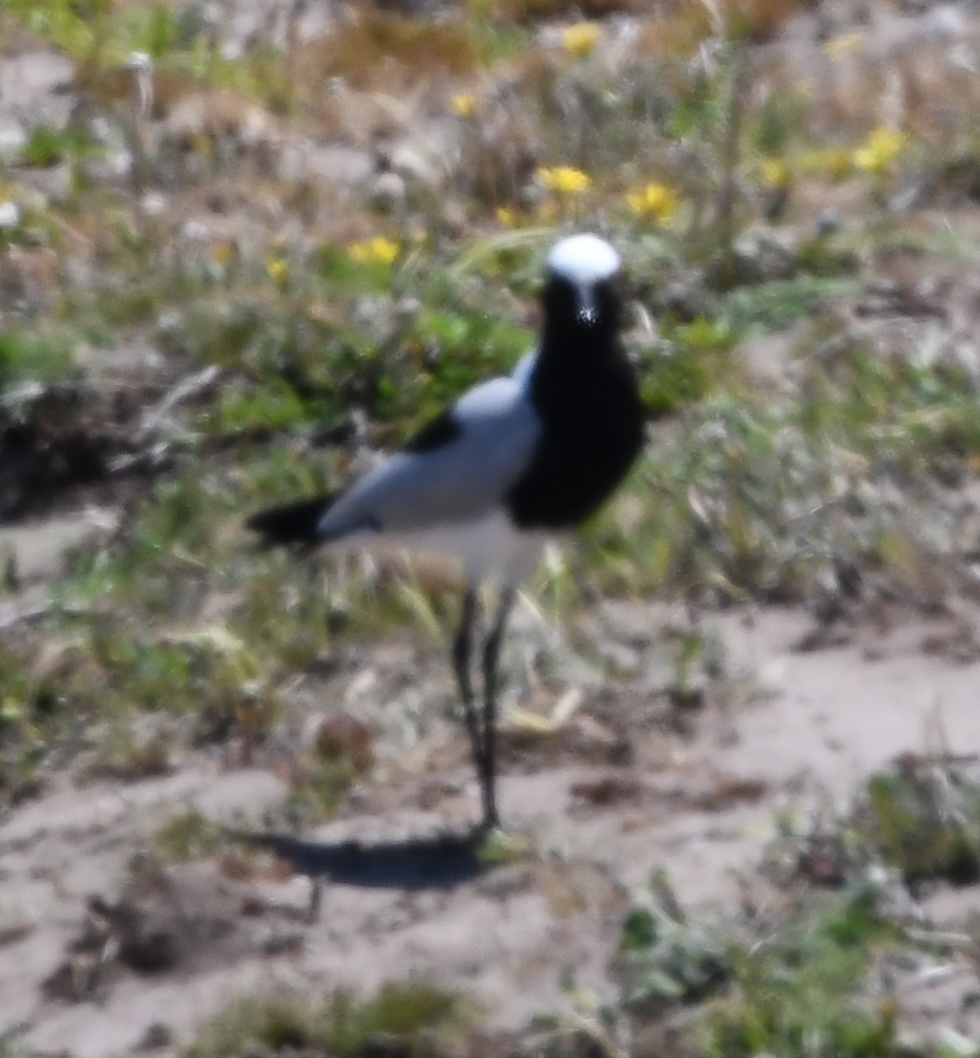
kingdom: Animalia
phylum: Chordata
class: Aves
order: Charadriiformes
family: Charadriidae
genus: Vanellus
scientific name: Vanellus armatus
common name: Blacksmith lapwing
